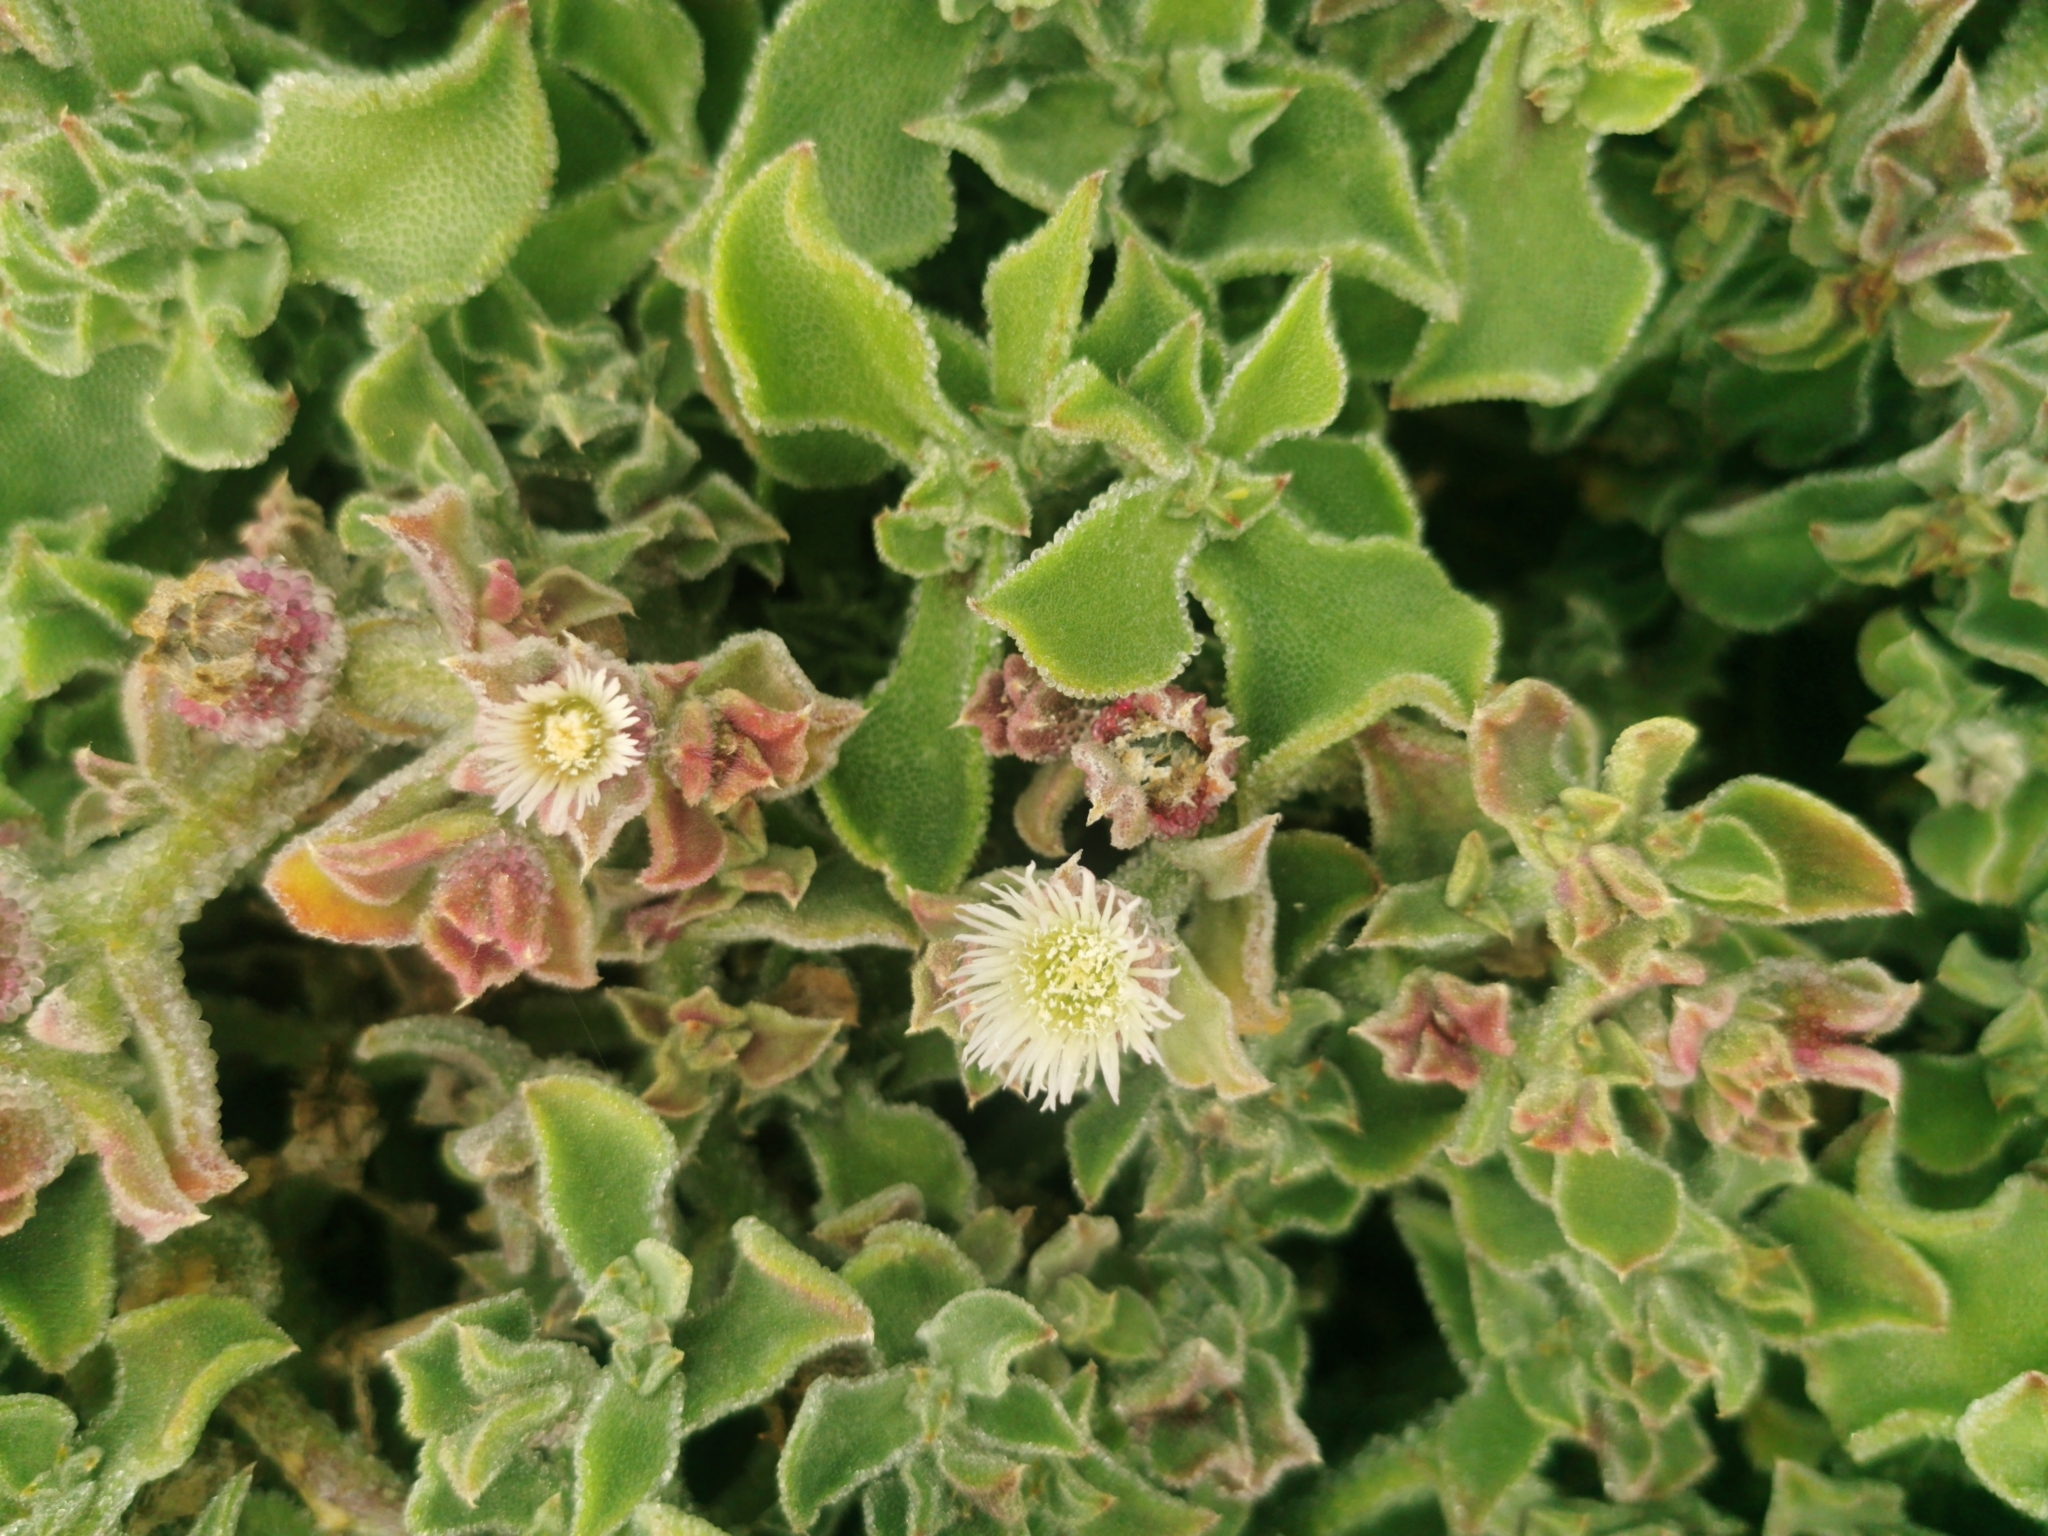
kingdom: Plantae
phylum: Tracheophyta
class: Magnoliopsida
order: Caryophyllales
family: Aizoaceae
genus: Mesembryanthemum
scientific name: Mesembryanthemum crystallinum
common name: Common iceplant
